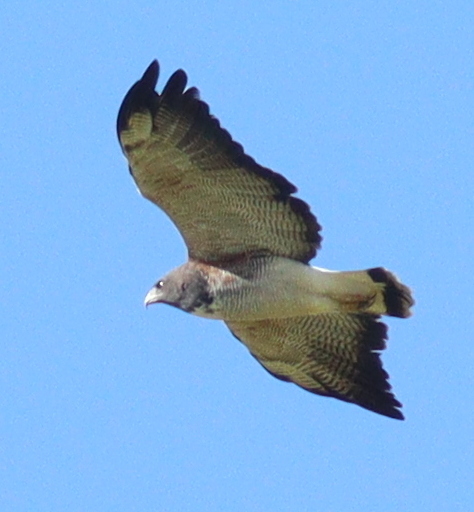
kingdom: Animalia
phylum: Chordata
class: Aves
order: Accipitriformes
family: Accipitridae
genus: Buteo
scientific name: Buteo albicaudatus
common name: White-tailed hawk
